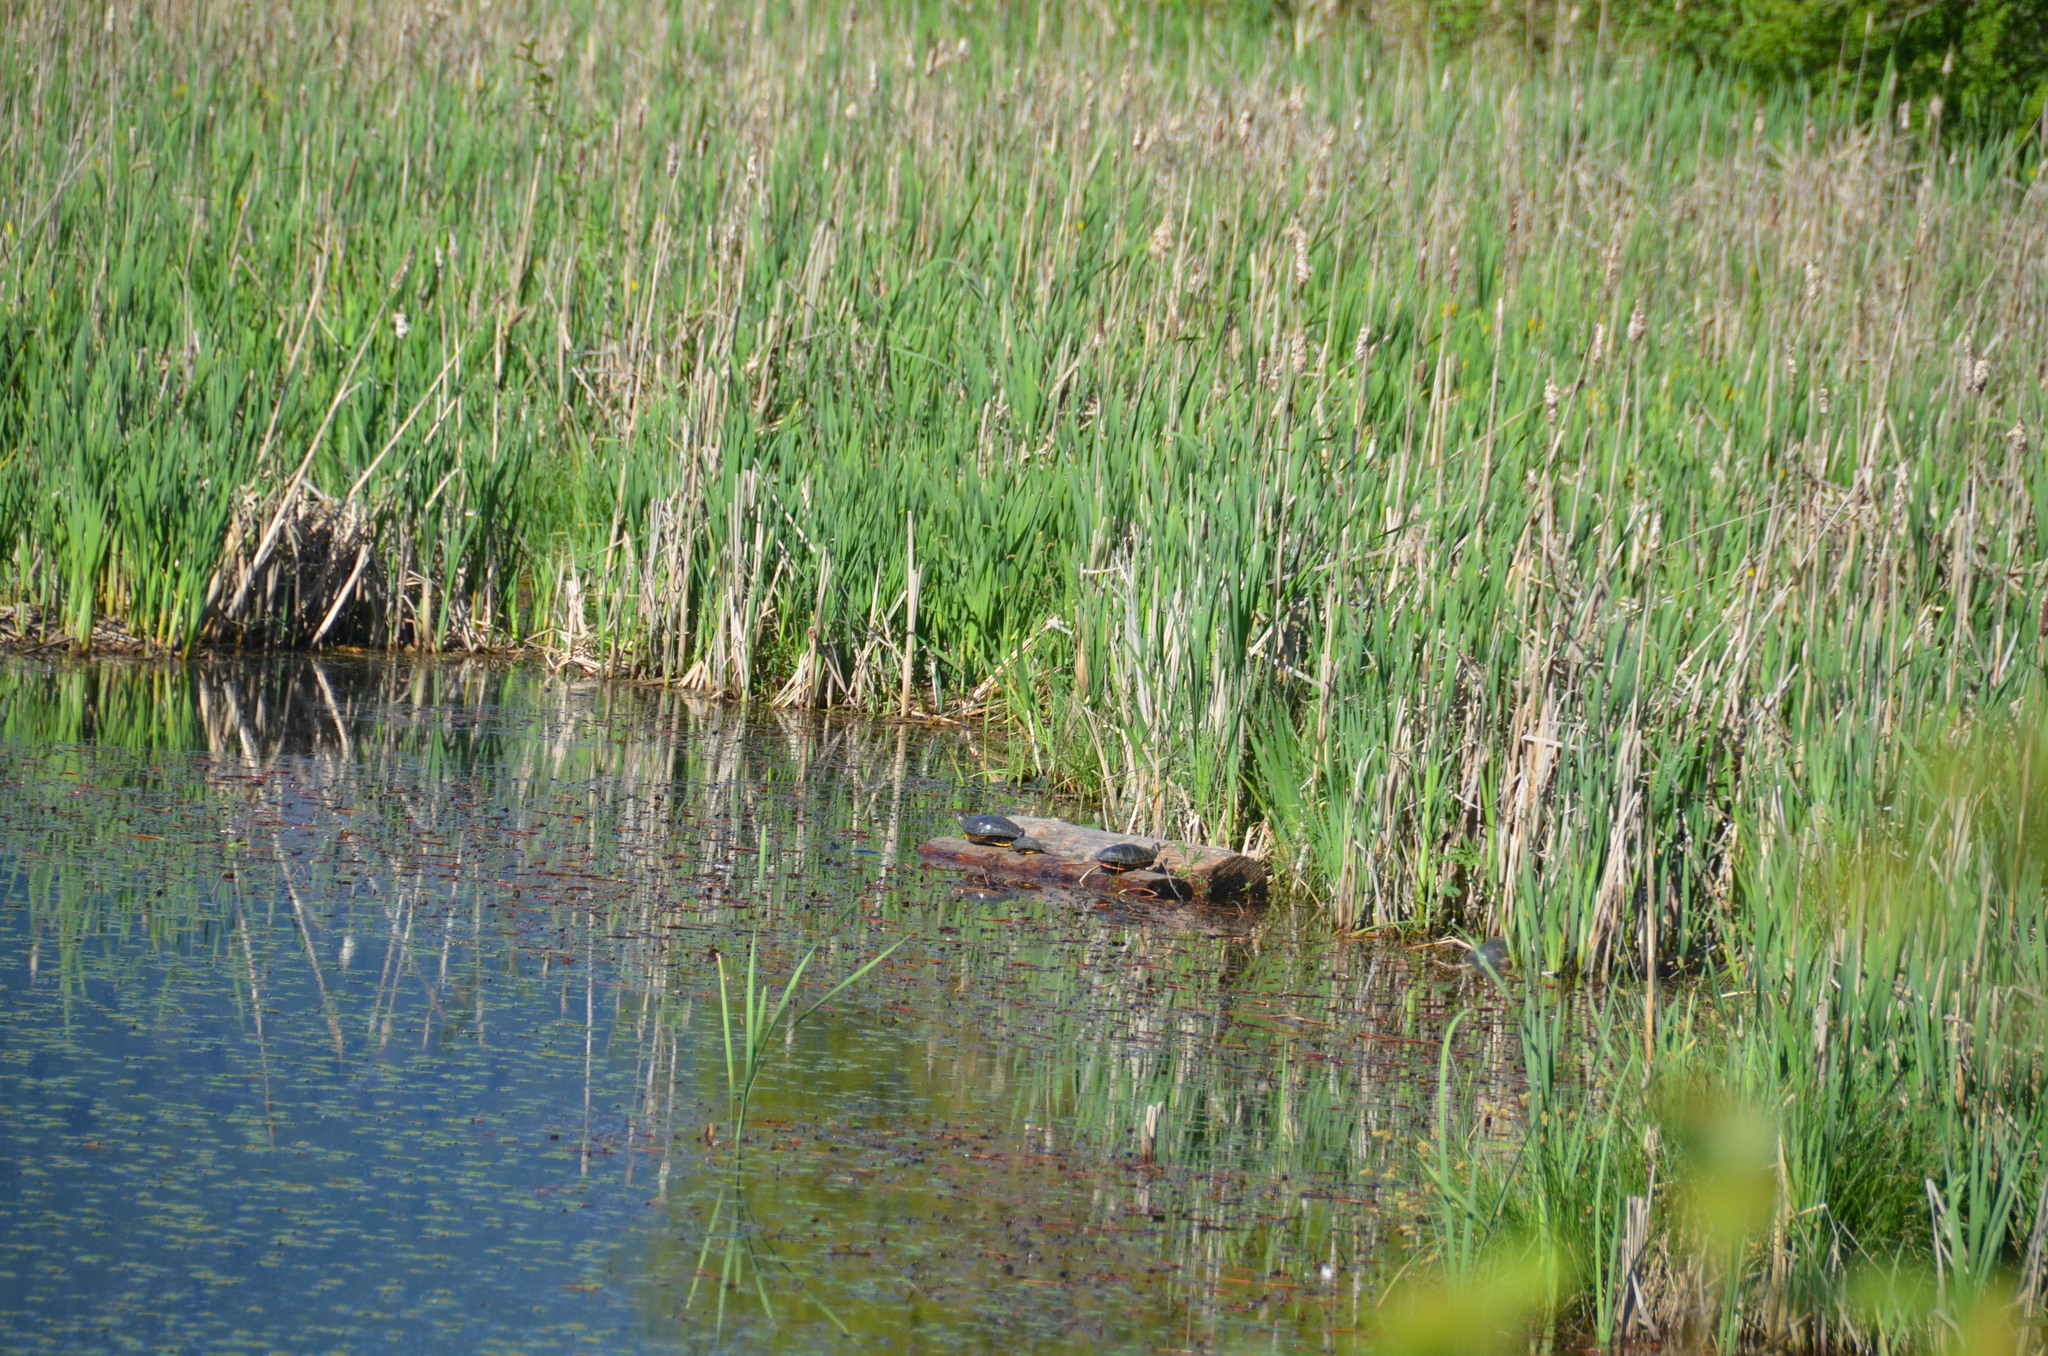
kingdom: Animalia
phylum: Chordata
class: Testudines
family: Emydidae
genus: Trachemys
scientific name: Trachemys scripta
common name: Slider
